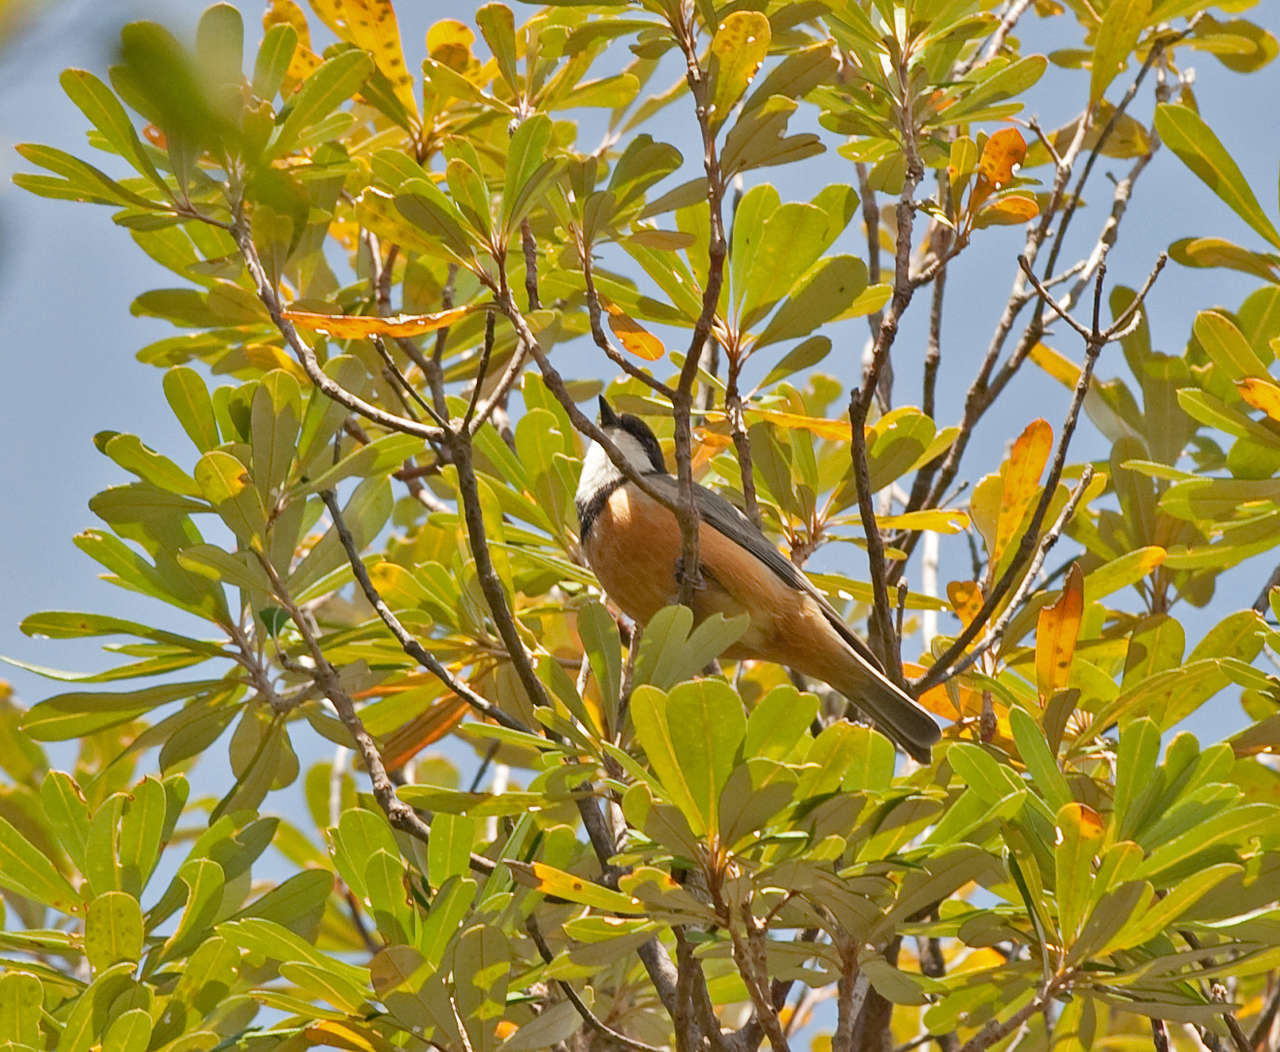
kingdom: Animalia
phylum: Chordata
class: Aves
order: Passeriformes
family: Pachycephalidae
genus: Pachycephala
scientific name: Pachycephala rufiventris
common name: Rufous whistler
